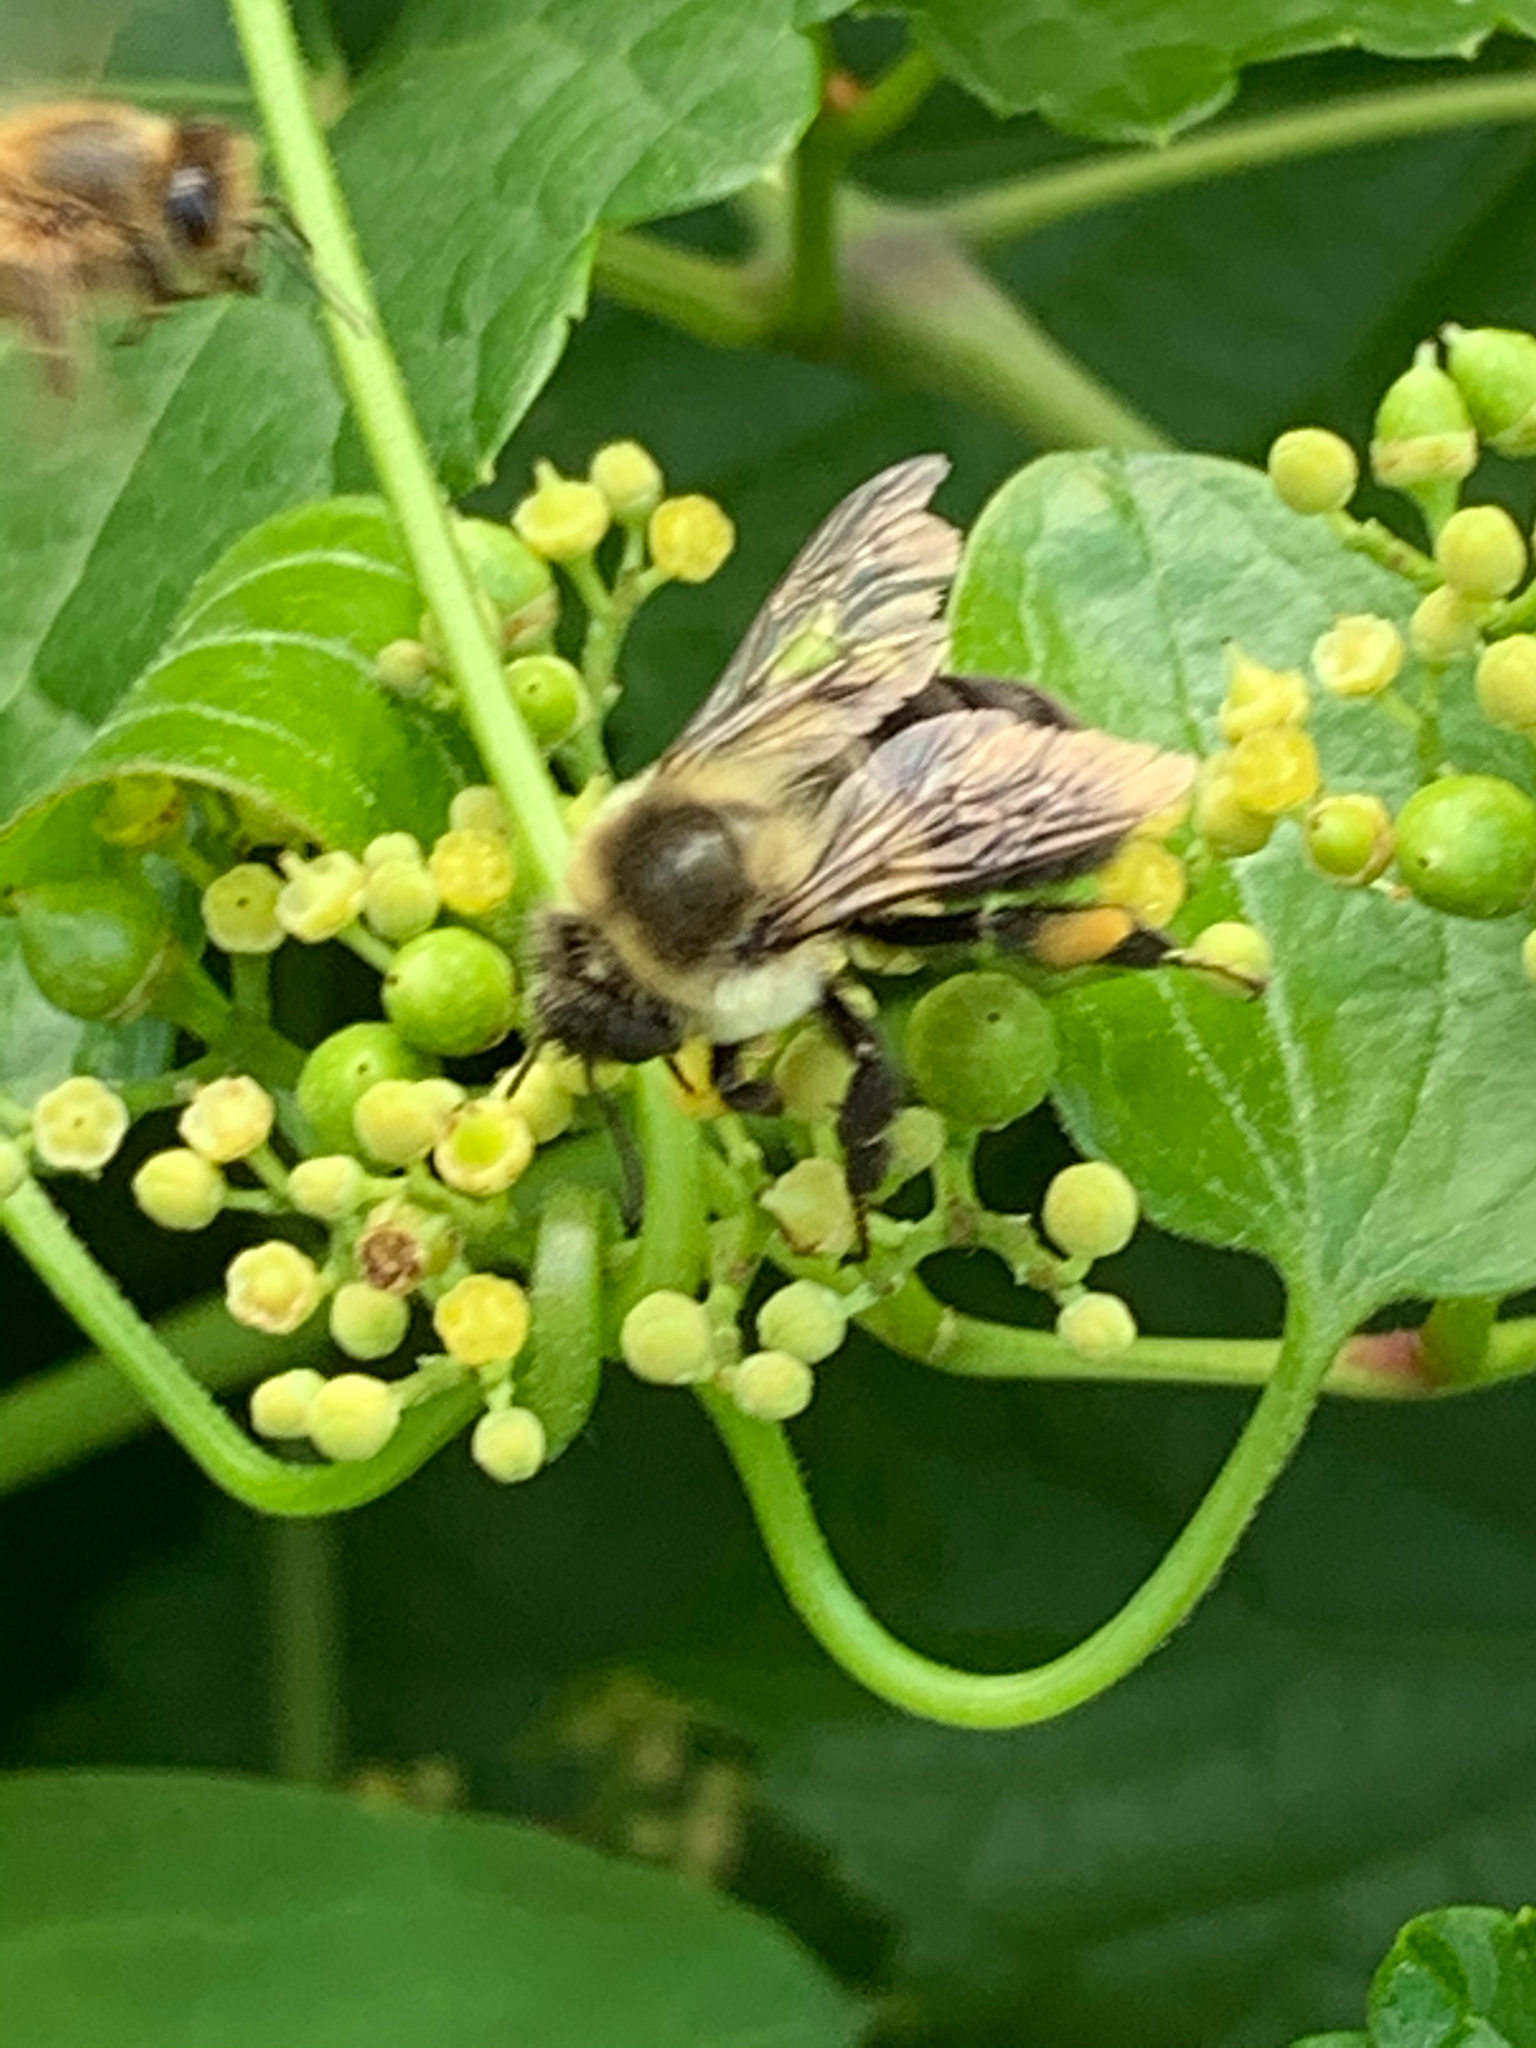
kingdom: Animalia
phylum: Arthropoda
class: Insecta
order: Hymenoptera
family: Apidae
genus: Bombus
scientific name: Bombus impatiens
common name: Common eastern bumble bee
